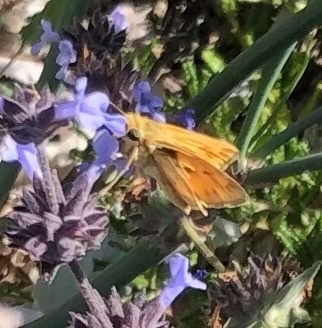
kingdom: Animalia
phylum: Arthropoda
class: Insecta
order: Lepidoptera
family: Hesperiidae
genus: Hylephila
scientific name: Hylephila phyleus
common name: Fiery skipper
